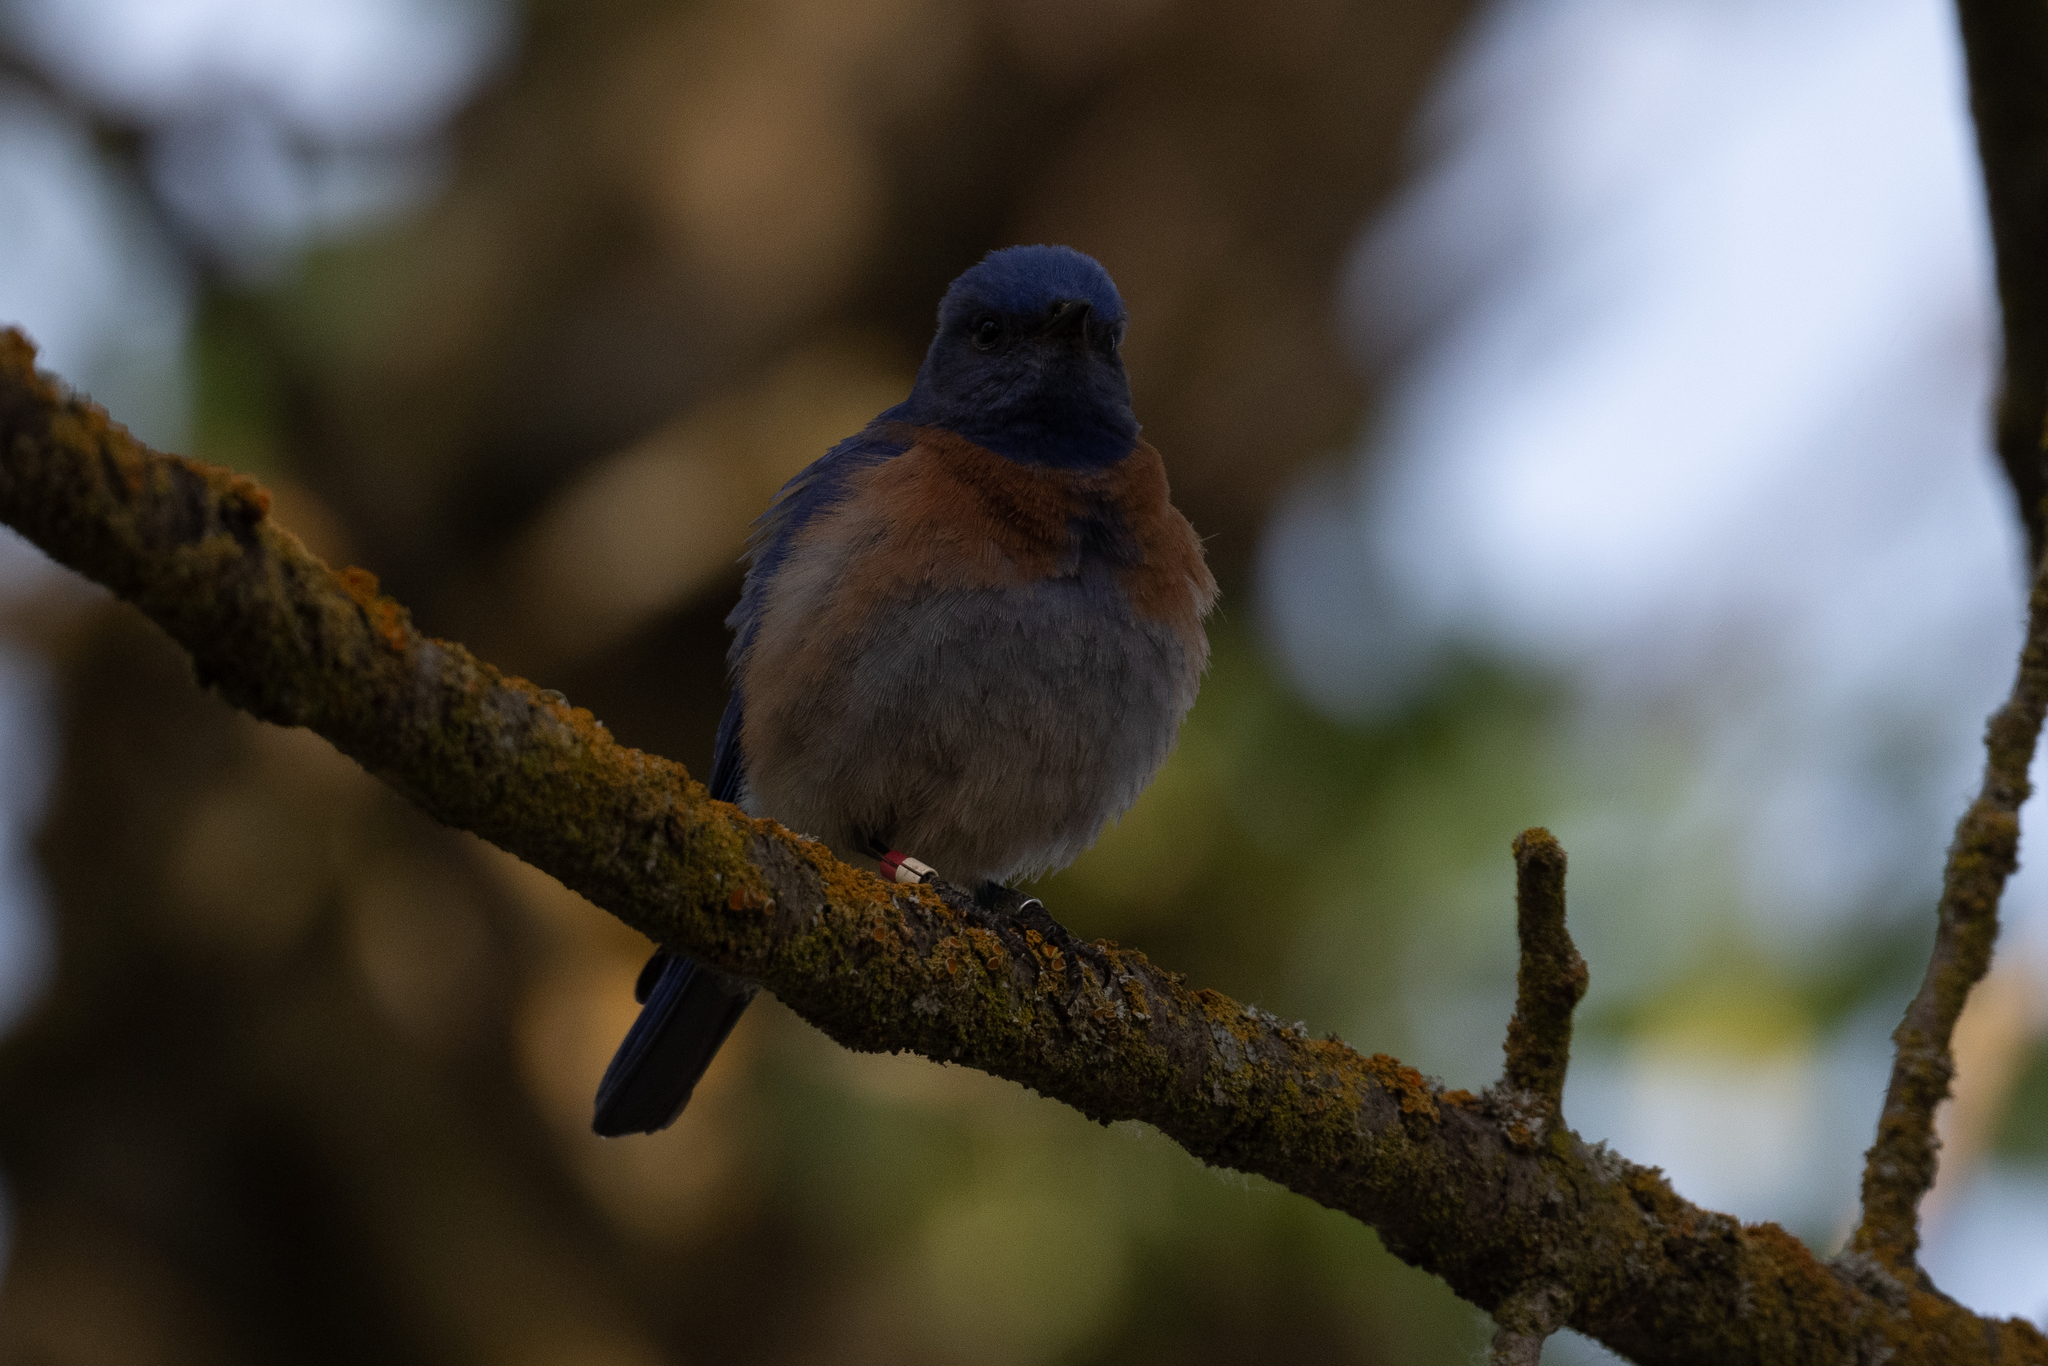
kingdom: Animalia
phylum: Chordata
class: Aves
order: Passeriformes
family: Turdidae
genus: Sialia
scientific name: Sialia mexicana
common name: Western bluebird
